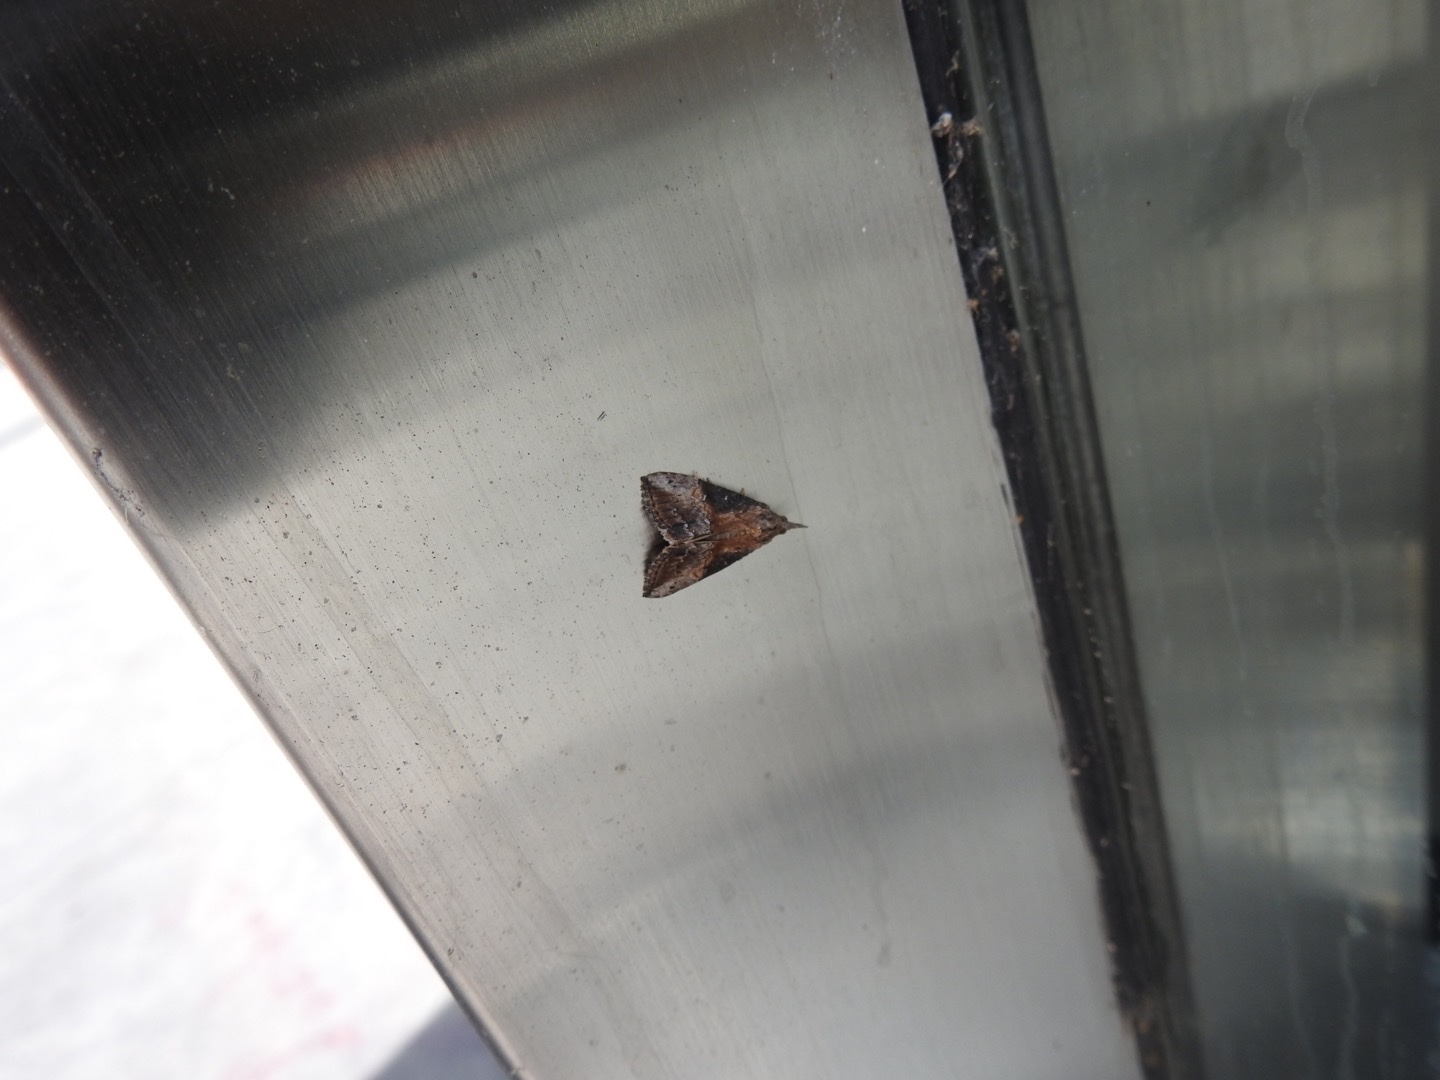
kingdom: Animalia
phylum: Arthropoda
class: Insecta
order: Lepidoptera
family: Erebidae
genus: Hypena
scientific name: Hypena scabra
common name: Green cloverworm
